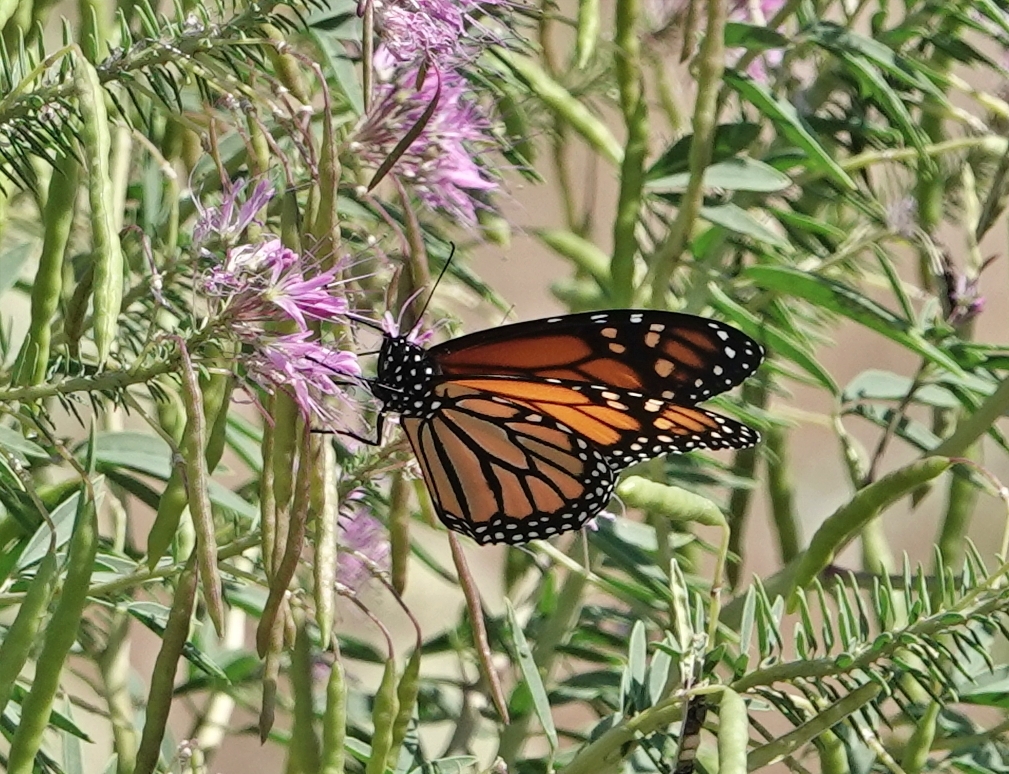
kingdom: Animalia
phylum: Arthropoda
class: Insecta
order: Lepidoptera
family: Nymphalidae
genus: Danaus
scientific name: Danaus plexippus
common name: Monarch
